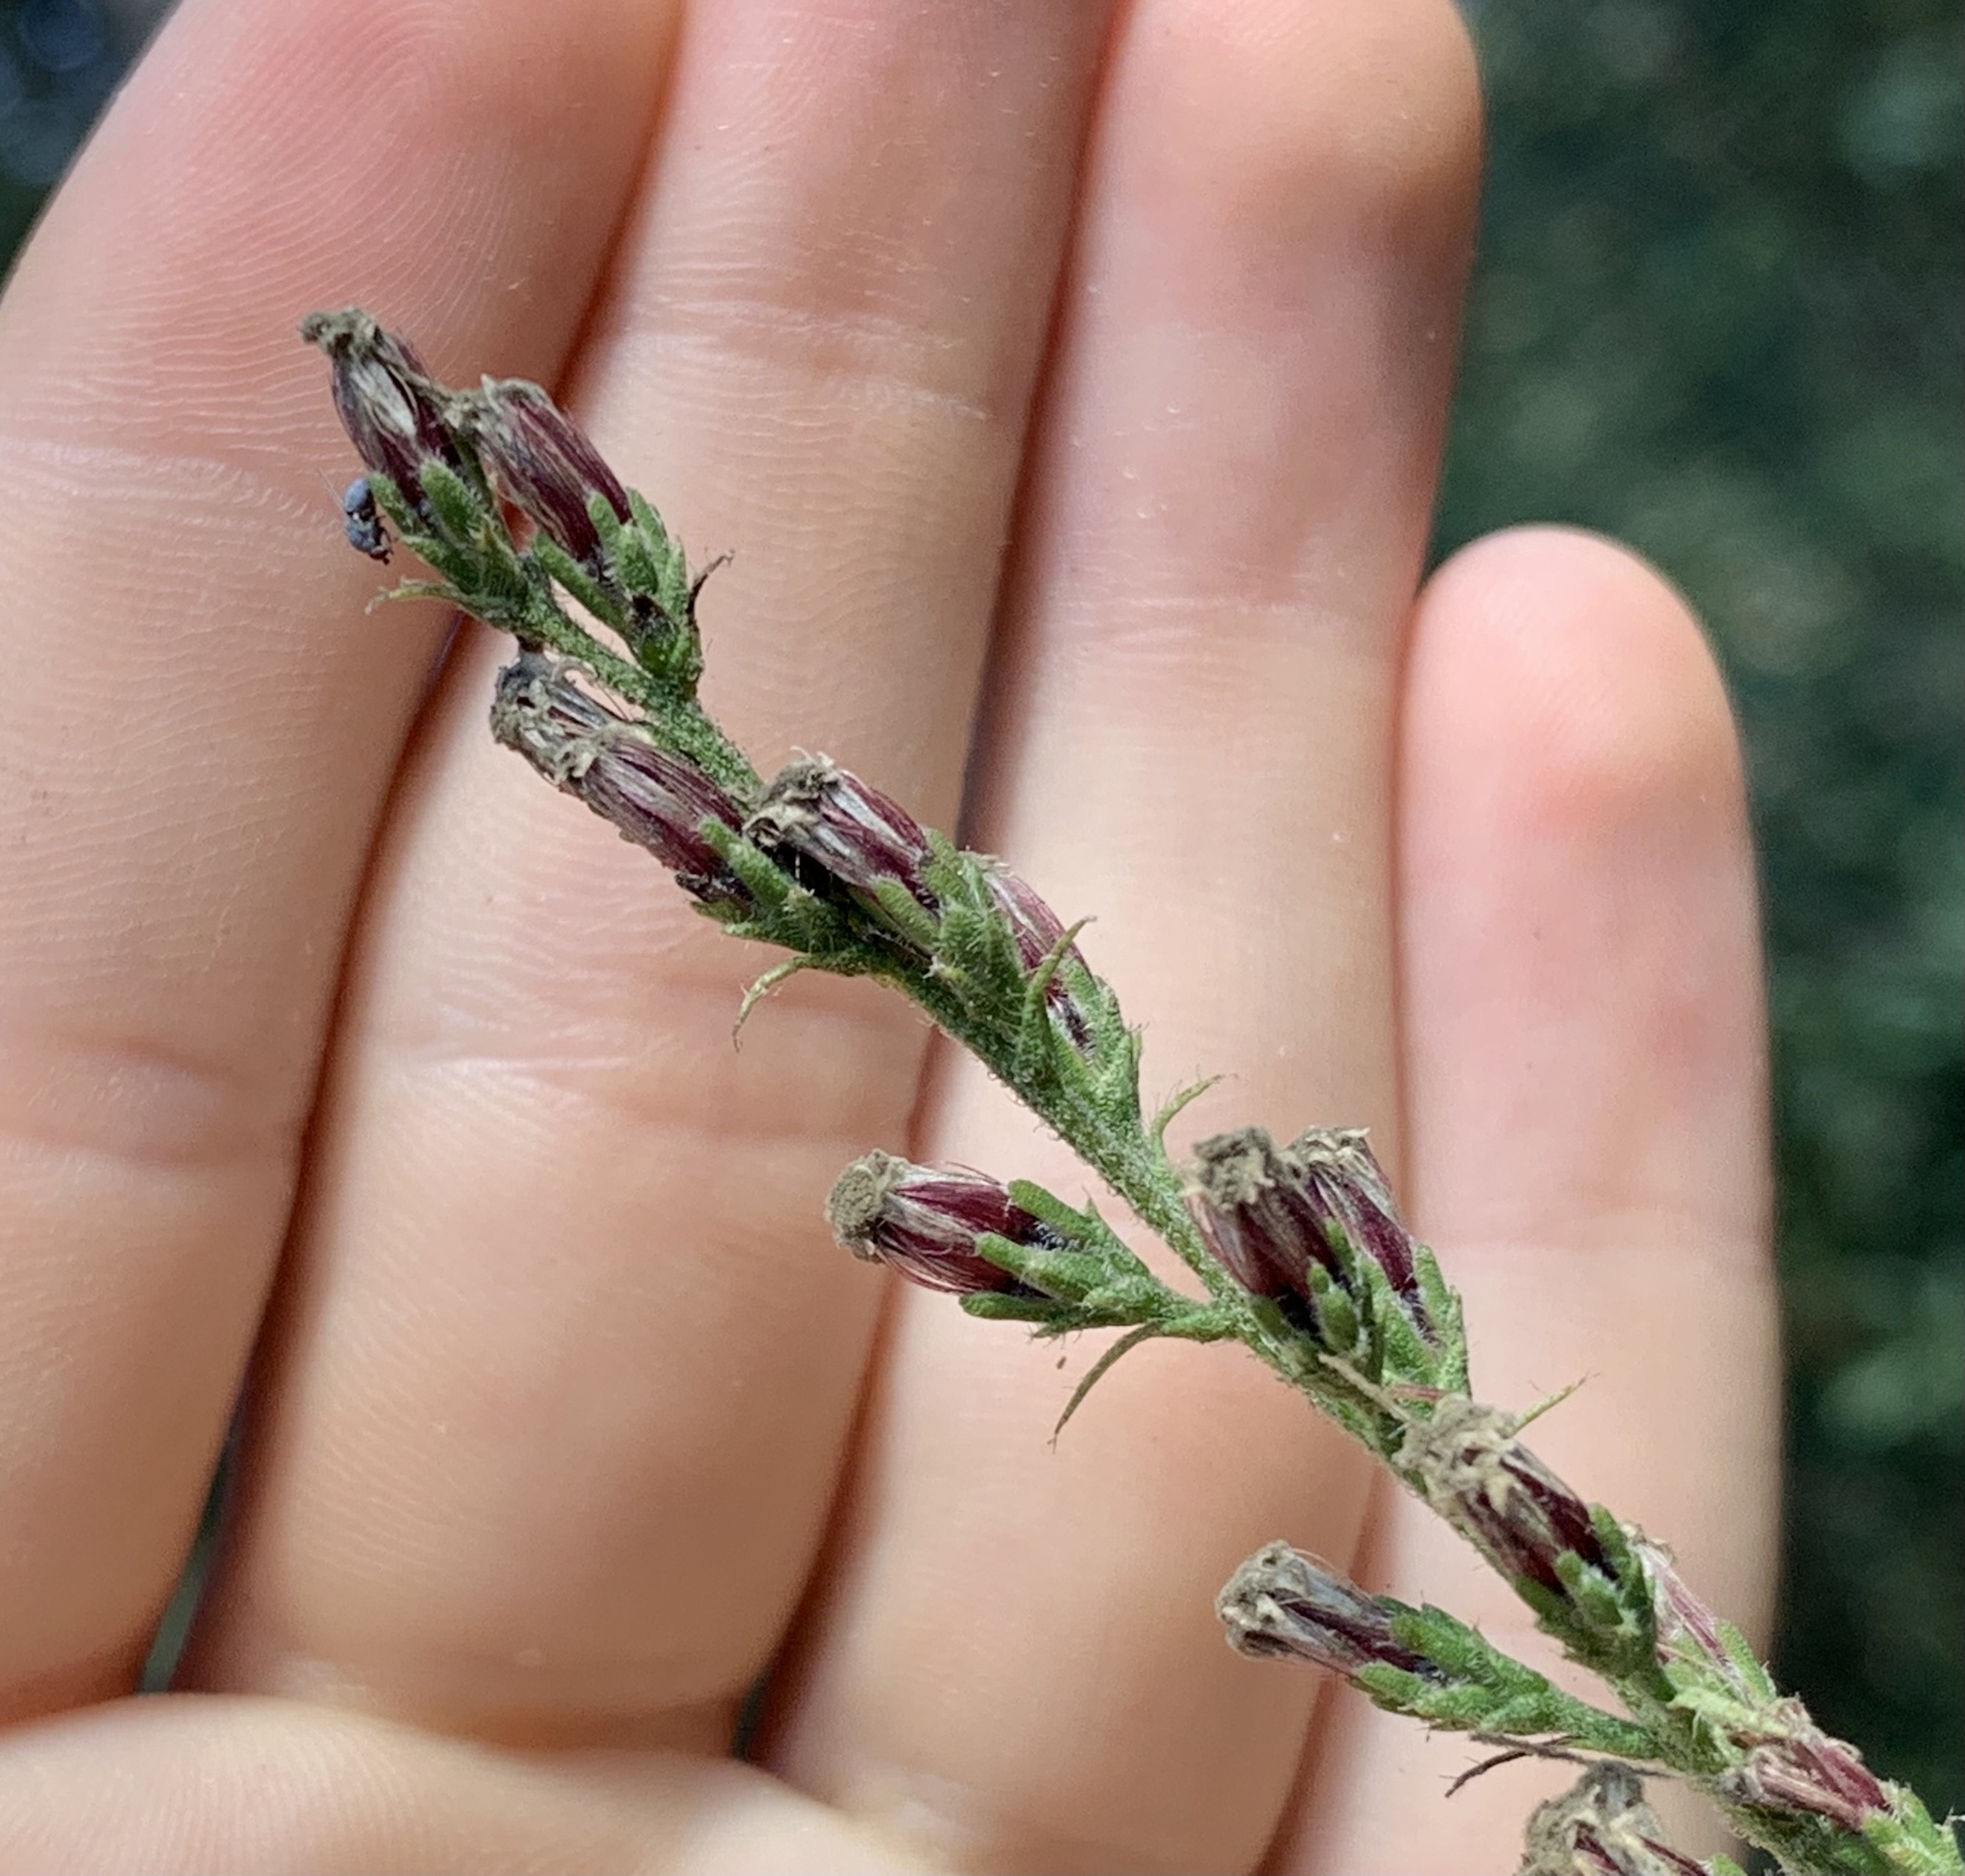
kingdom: Plantae
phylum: Tracheophyta
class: Magnoliopsida
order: Asterales
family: Asteraceae
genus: Liatris
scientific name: Liatris gracilis
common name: Slender gayfeather
